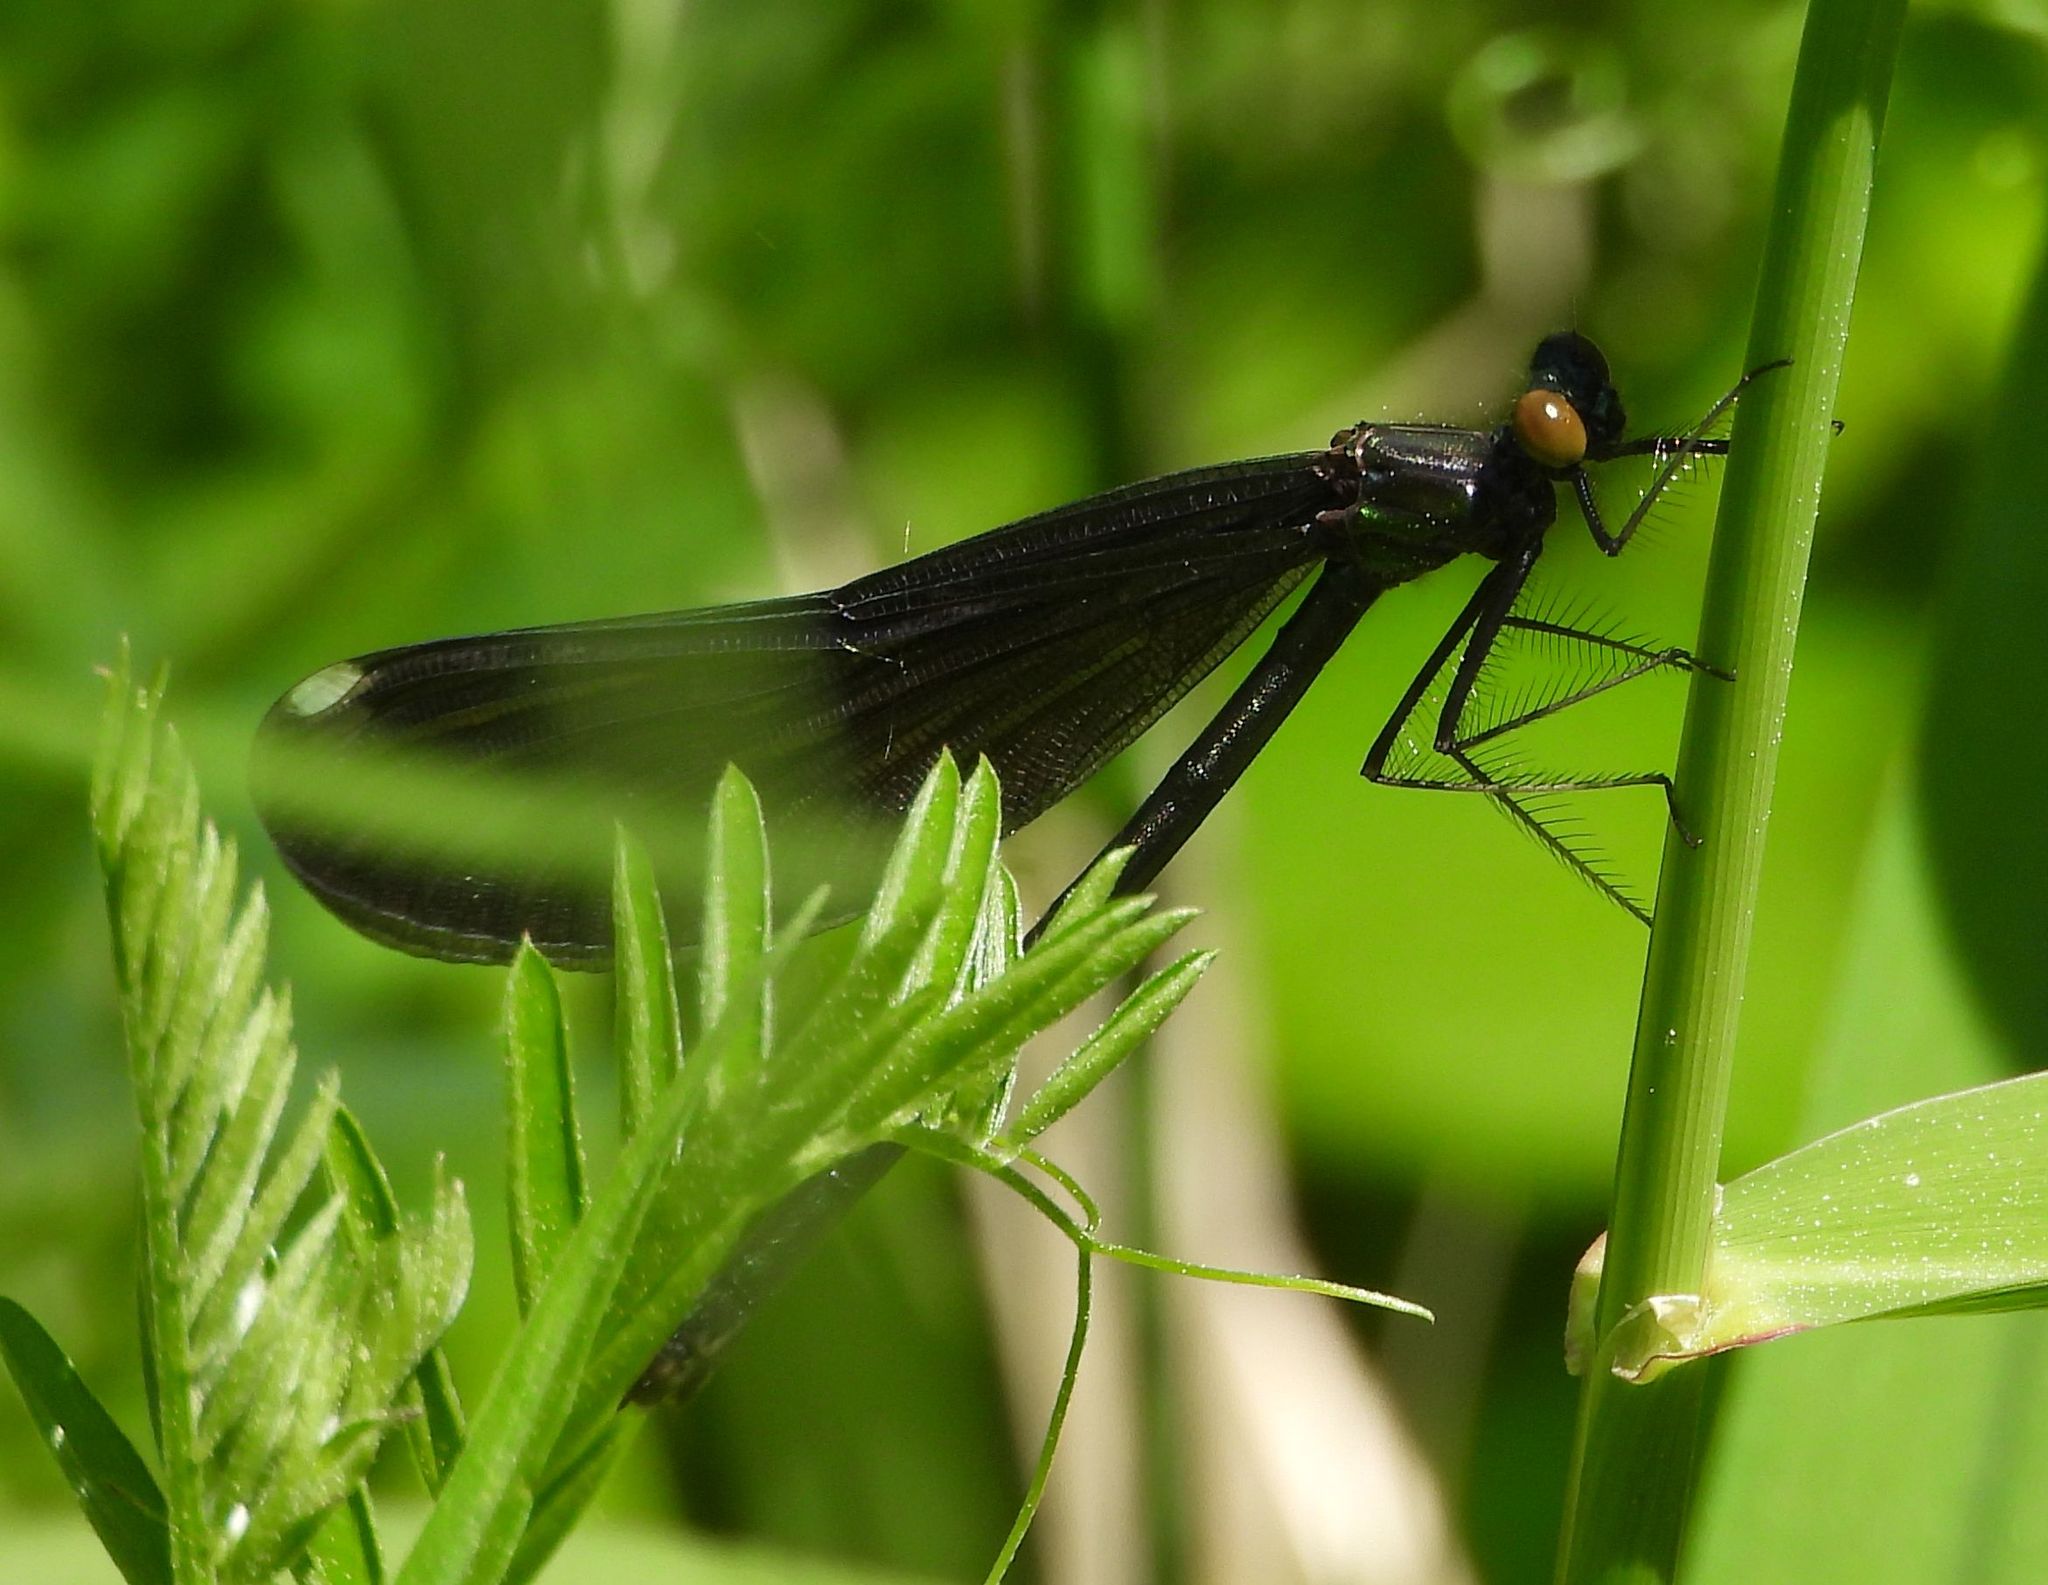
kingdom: Animalia
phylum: Arthropoda
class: Insecta
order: Odonata
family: Calopterygidae
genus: Calopteryx
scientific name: Calopteryx maculata
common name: Ebony jewelwing
